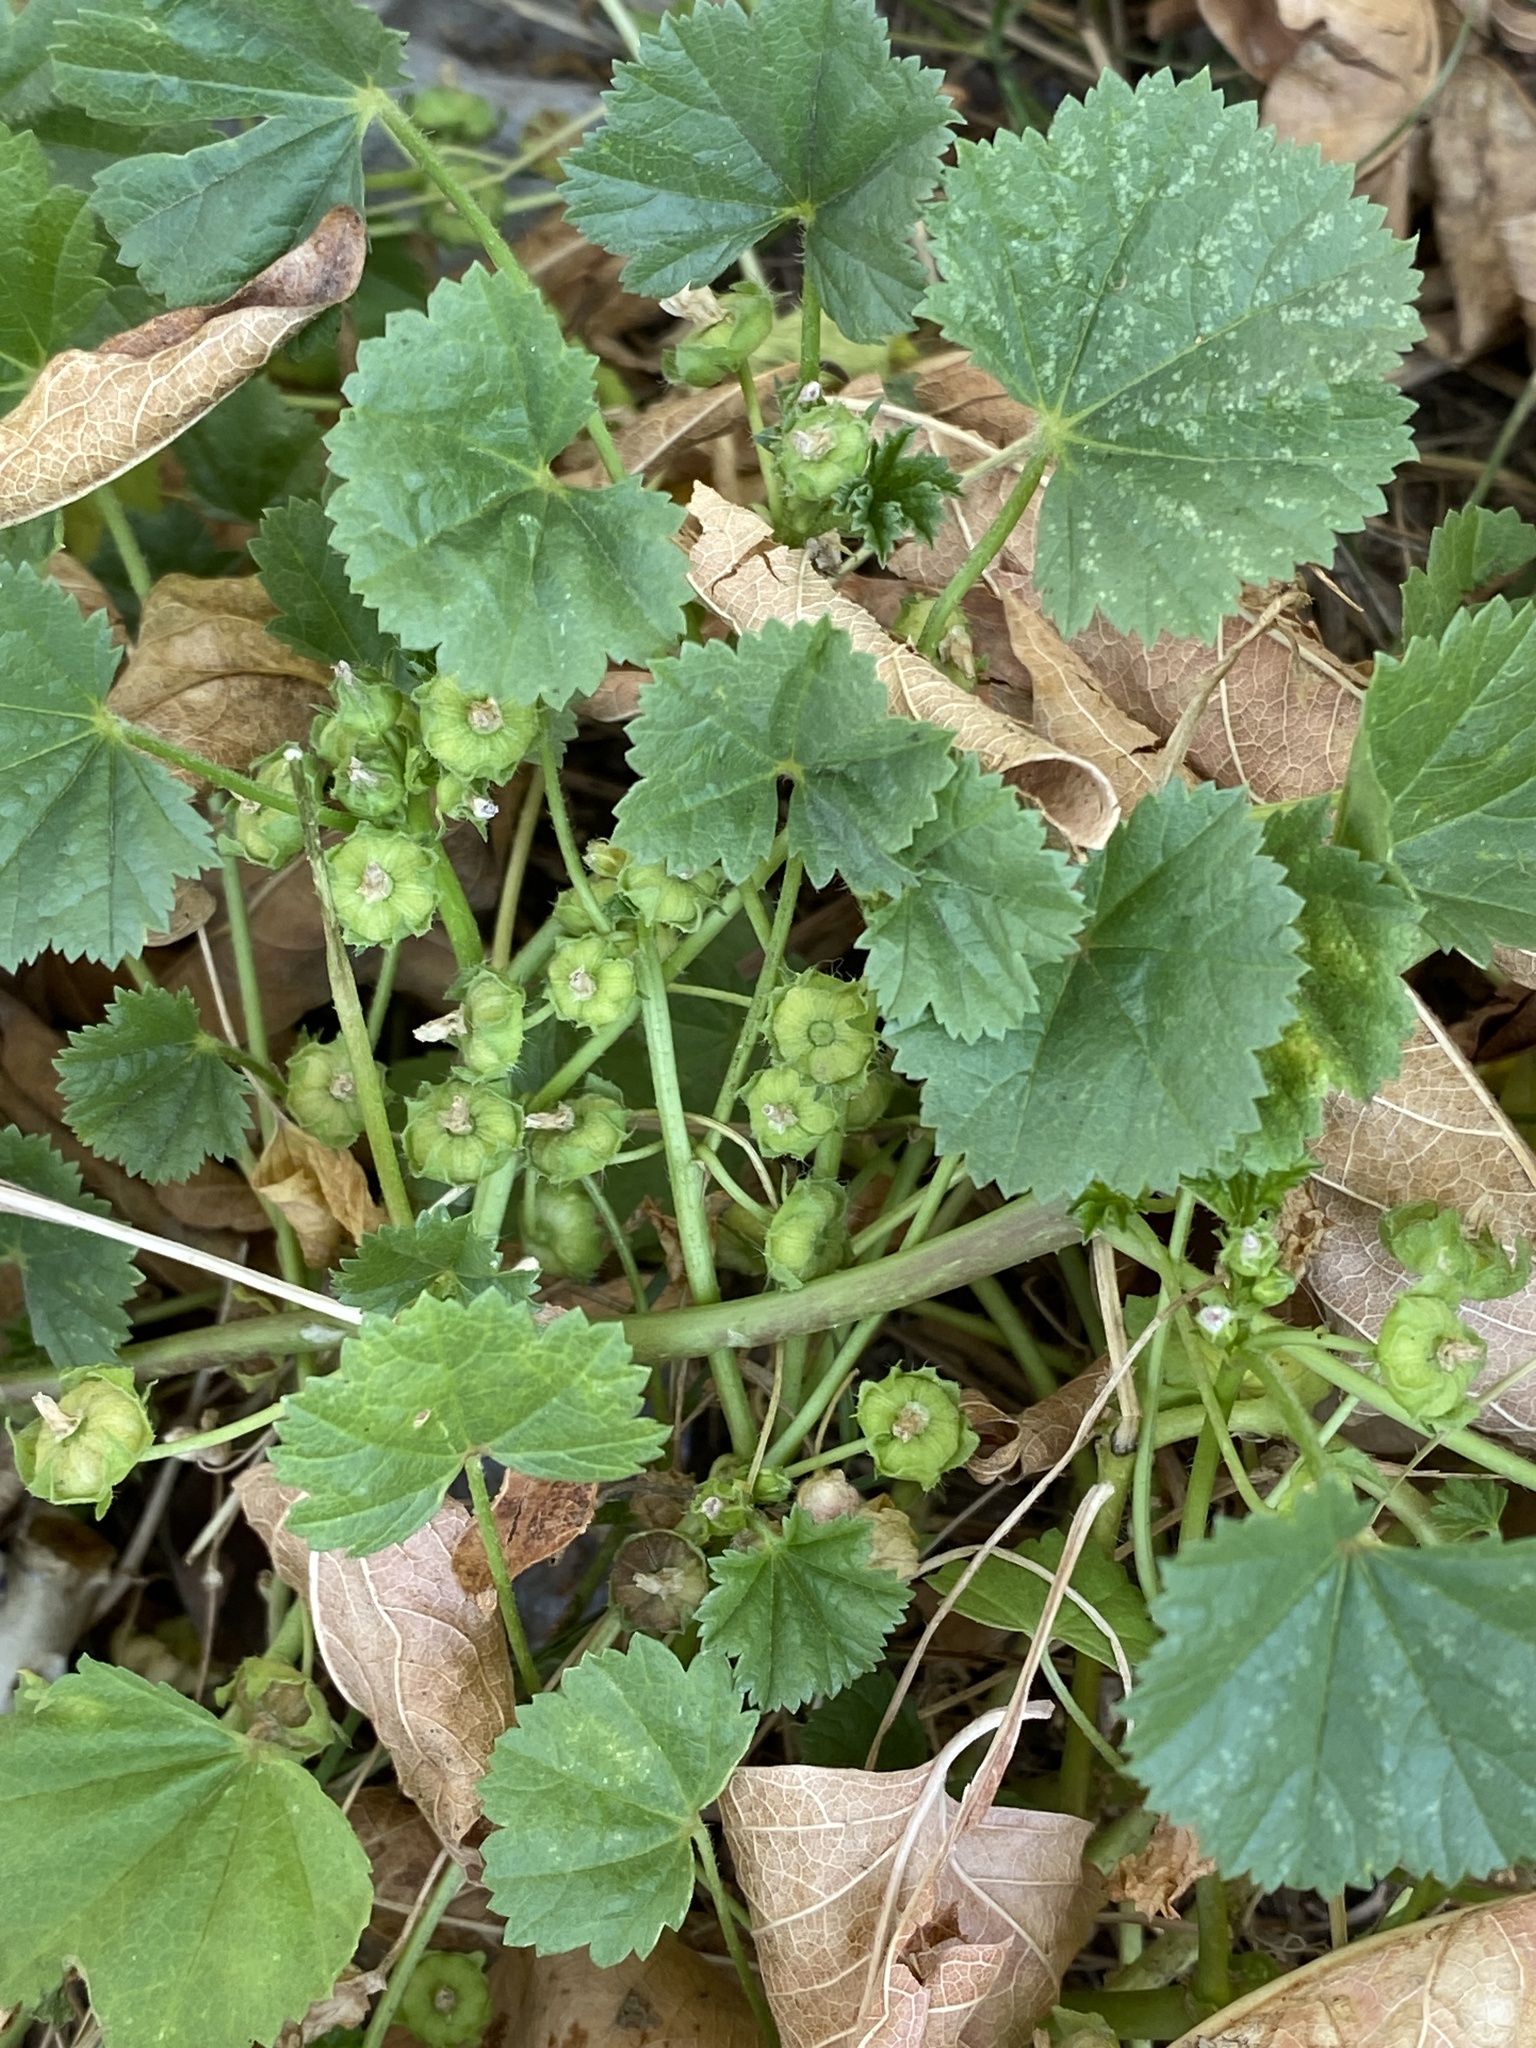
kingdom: Plantae
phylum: Tracheophyta
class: Magnoliopsida
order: Malvales
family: Malvaceae
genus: Malva
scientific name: Malva pusilla
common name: Small mallow
